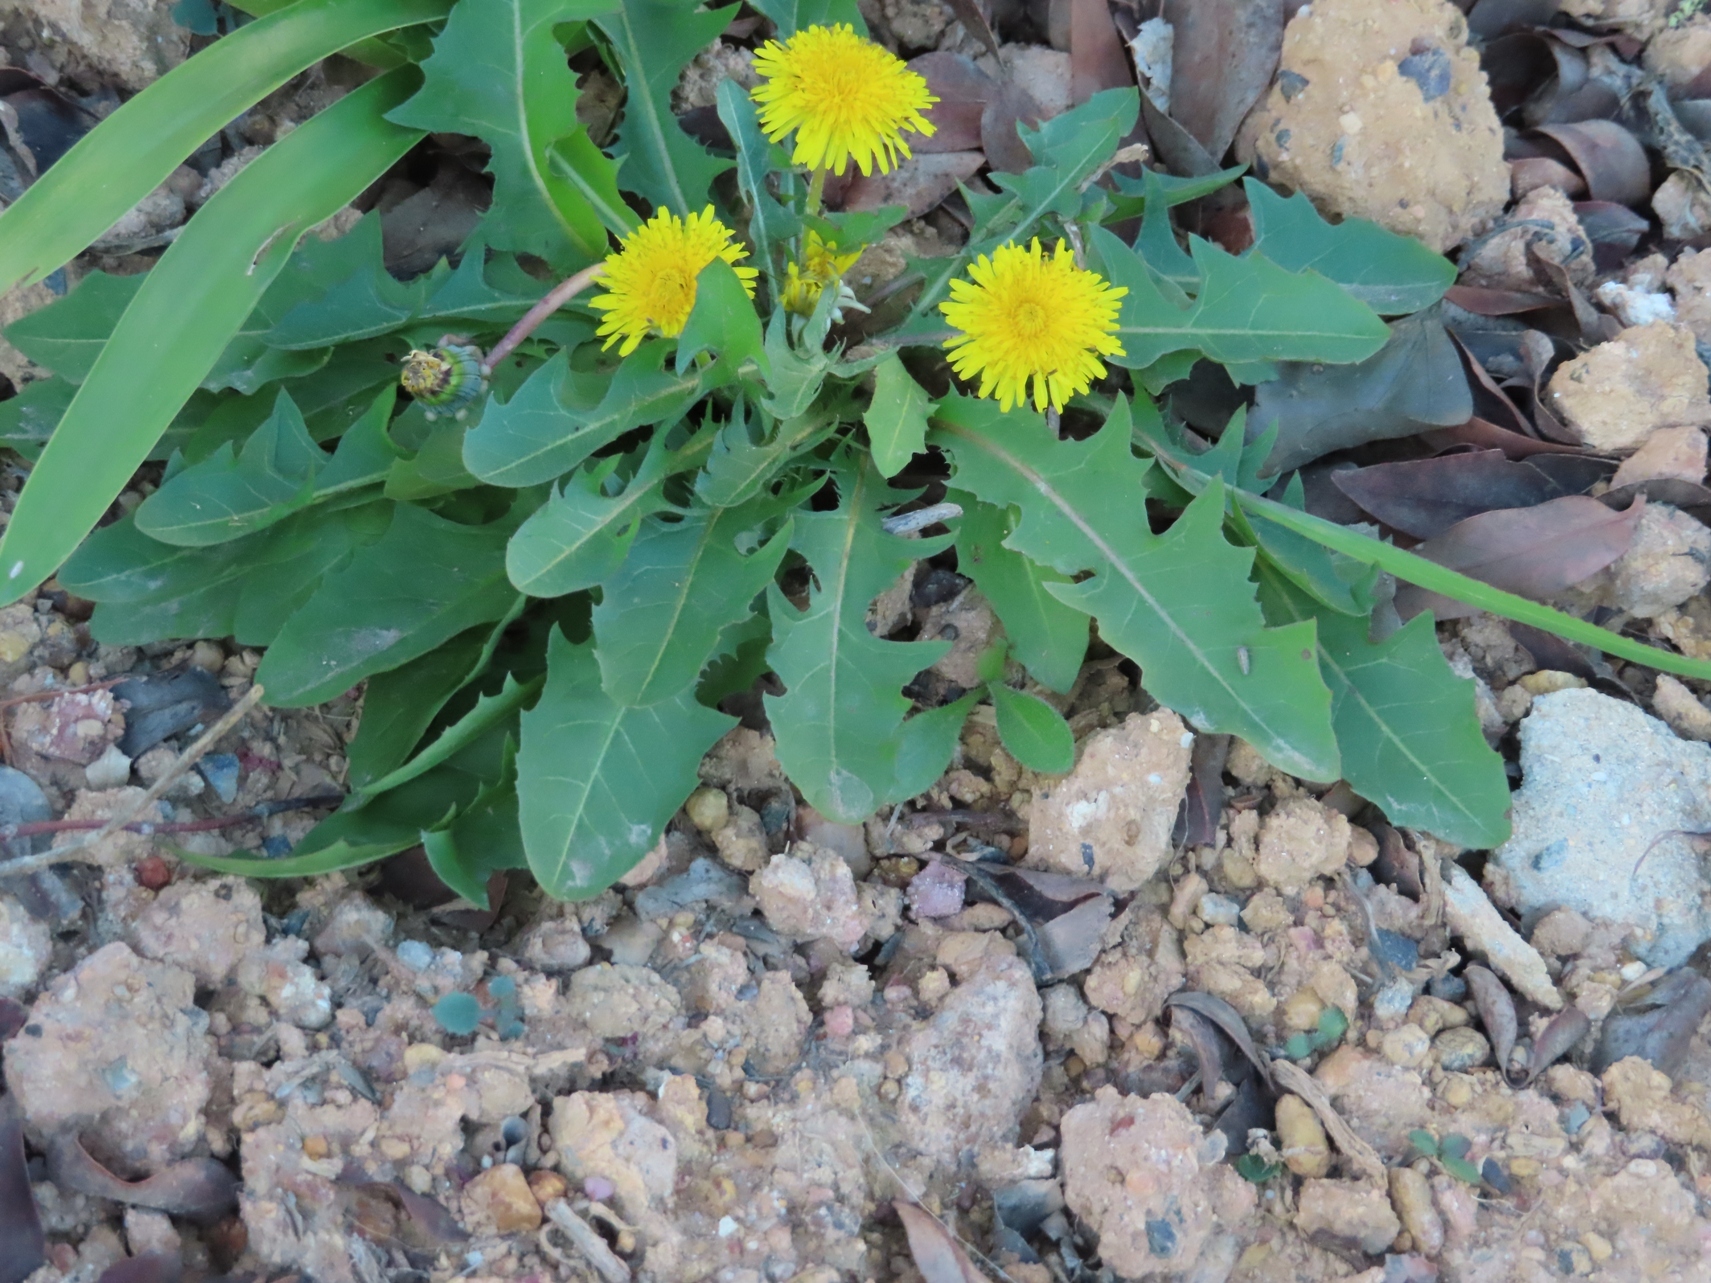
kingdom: Plantae
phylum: Tracheophyta
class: Magnoliopsida
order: Asterales
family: Asteraceae
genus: Taraxacum
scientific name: Taraxacum officinale
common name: Common dandelion
